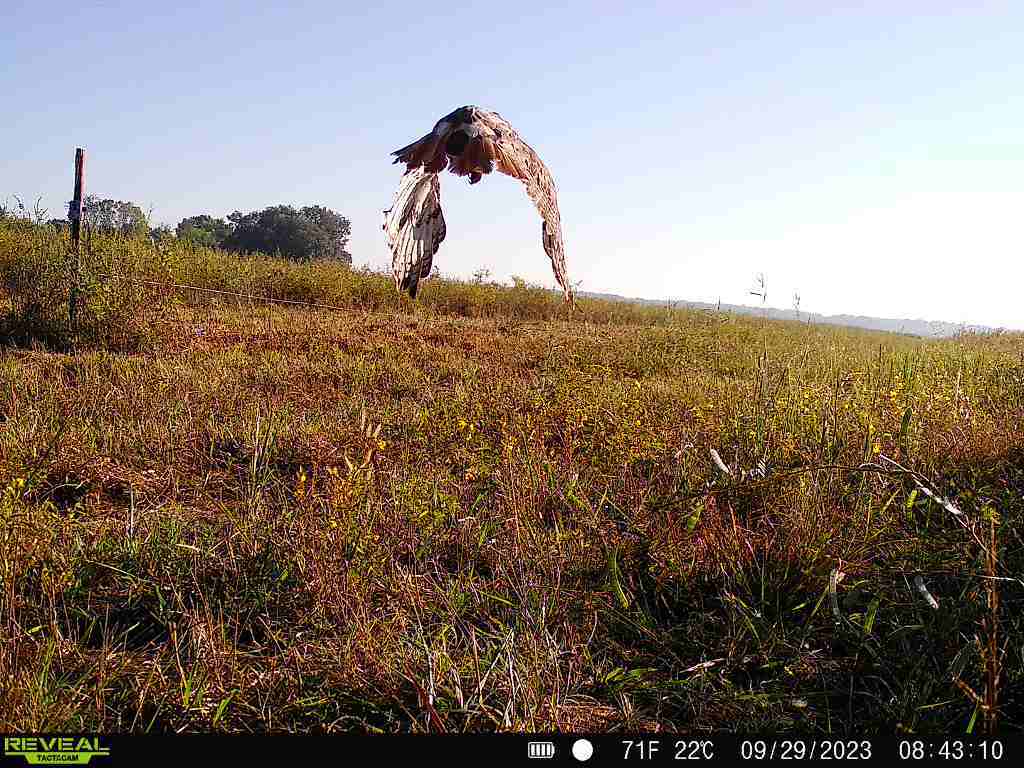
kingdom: Animalia
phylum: Chordata
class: Aves
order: Accipitriformes
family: Accipitridae
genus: Buteo
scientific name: Buteo jamaicensis
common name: Red-tailed hawk
